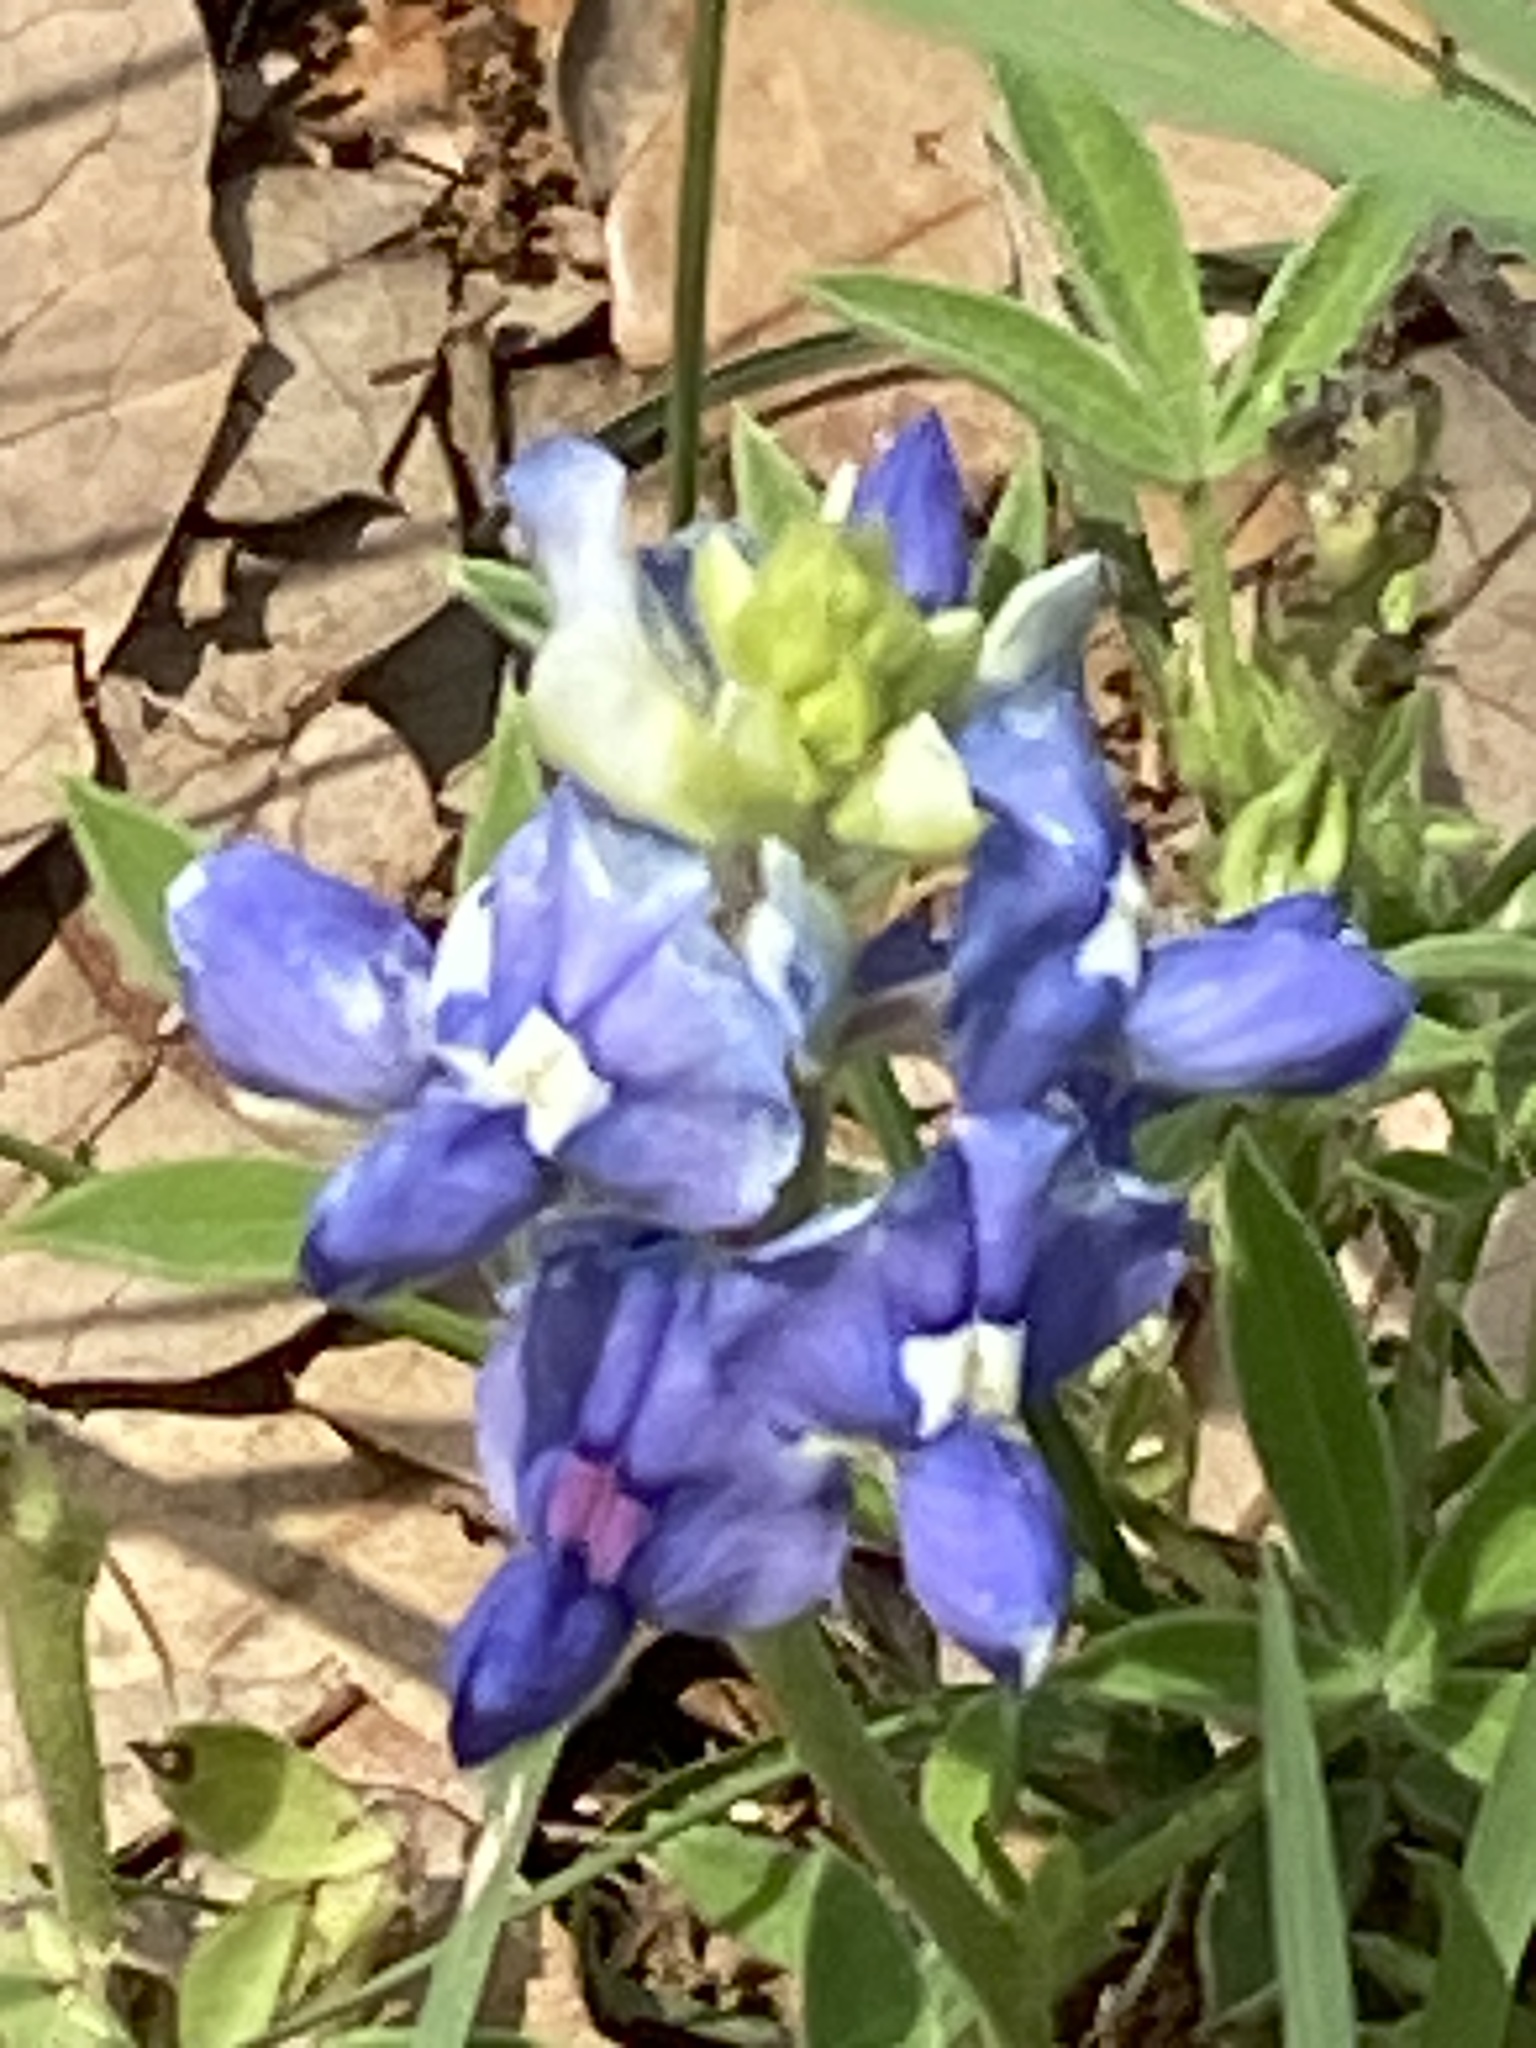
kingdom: Plantae
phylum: Tracheophyta
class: Magnoliopsida
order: Fabales
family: Fabaceae
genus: Lupinus
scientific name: Lupinus texensis
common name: Texas bluebonnet
